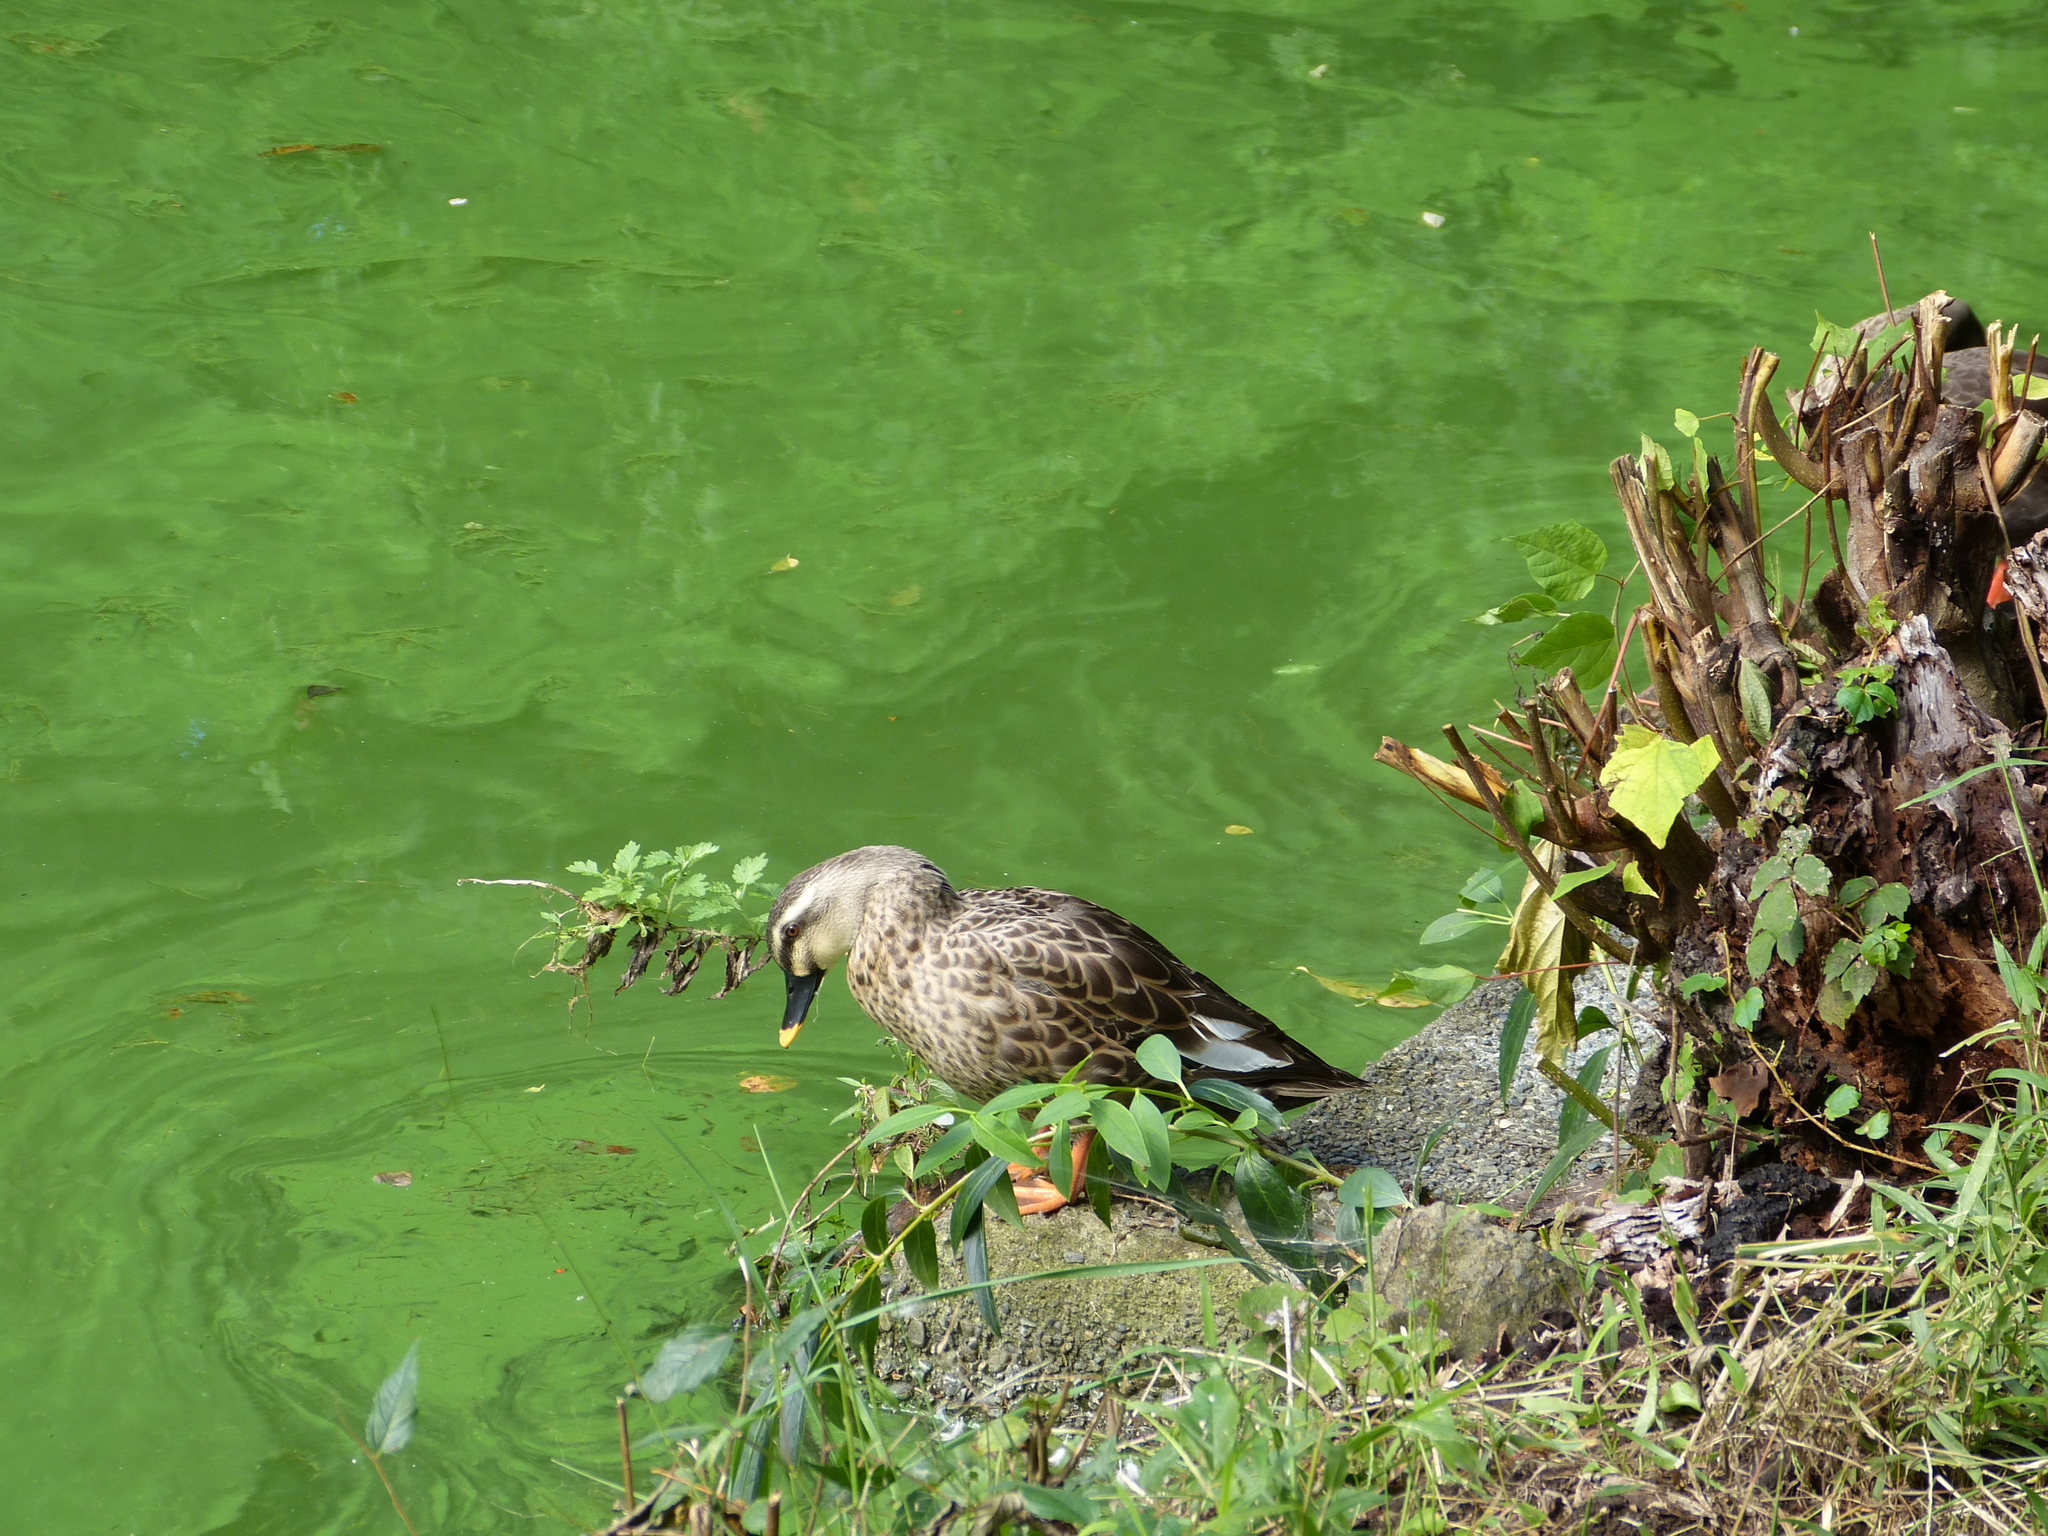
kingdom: Animalia
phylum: Chordata
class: Aves
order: Anseriformes
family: Anatidae
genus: Anas
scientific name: Anas zonorhyncha
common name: Eastern spot-billed duck
